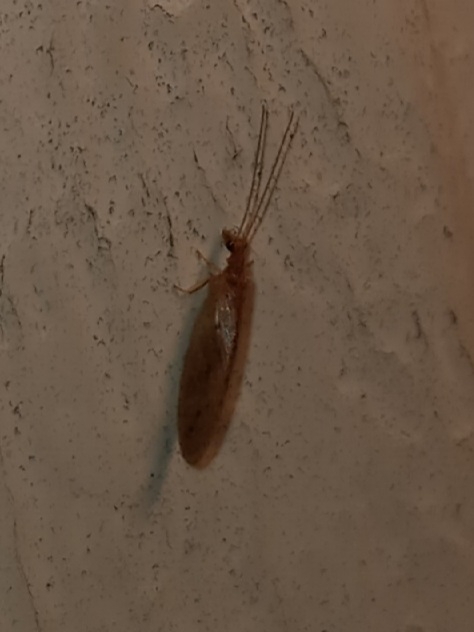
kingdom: Animalia
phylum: Arthropoda
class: Insecta
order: Neuroptera
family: Hemerobiidae
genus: Micromus
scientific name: Micromus subanticus
